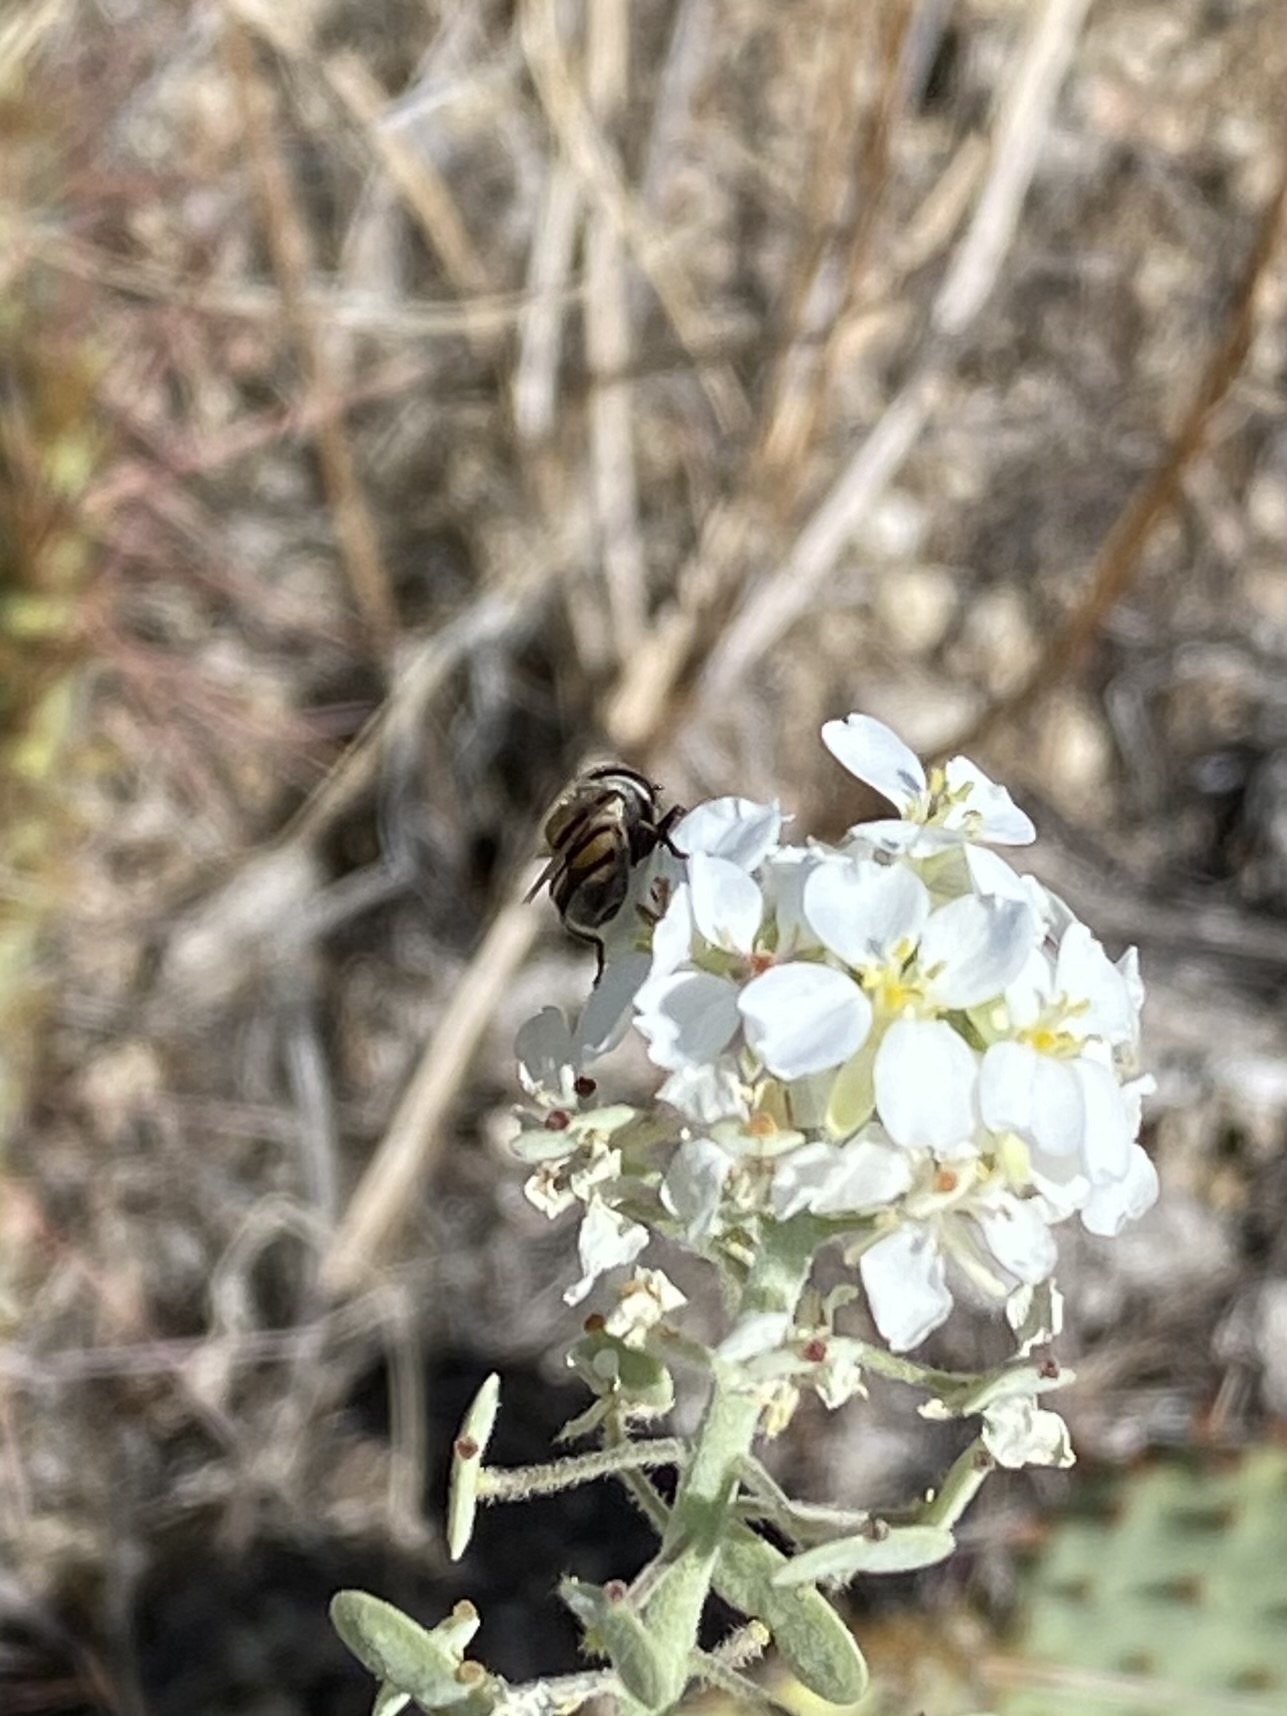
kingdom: Animalia
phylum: Arthropoda
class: Insecta
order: Diptera
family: Syrphidae
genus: Copestylum
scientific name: Copestylum marginatum
